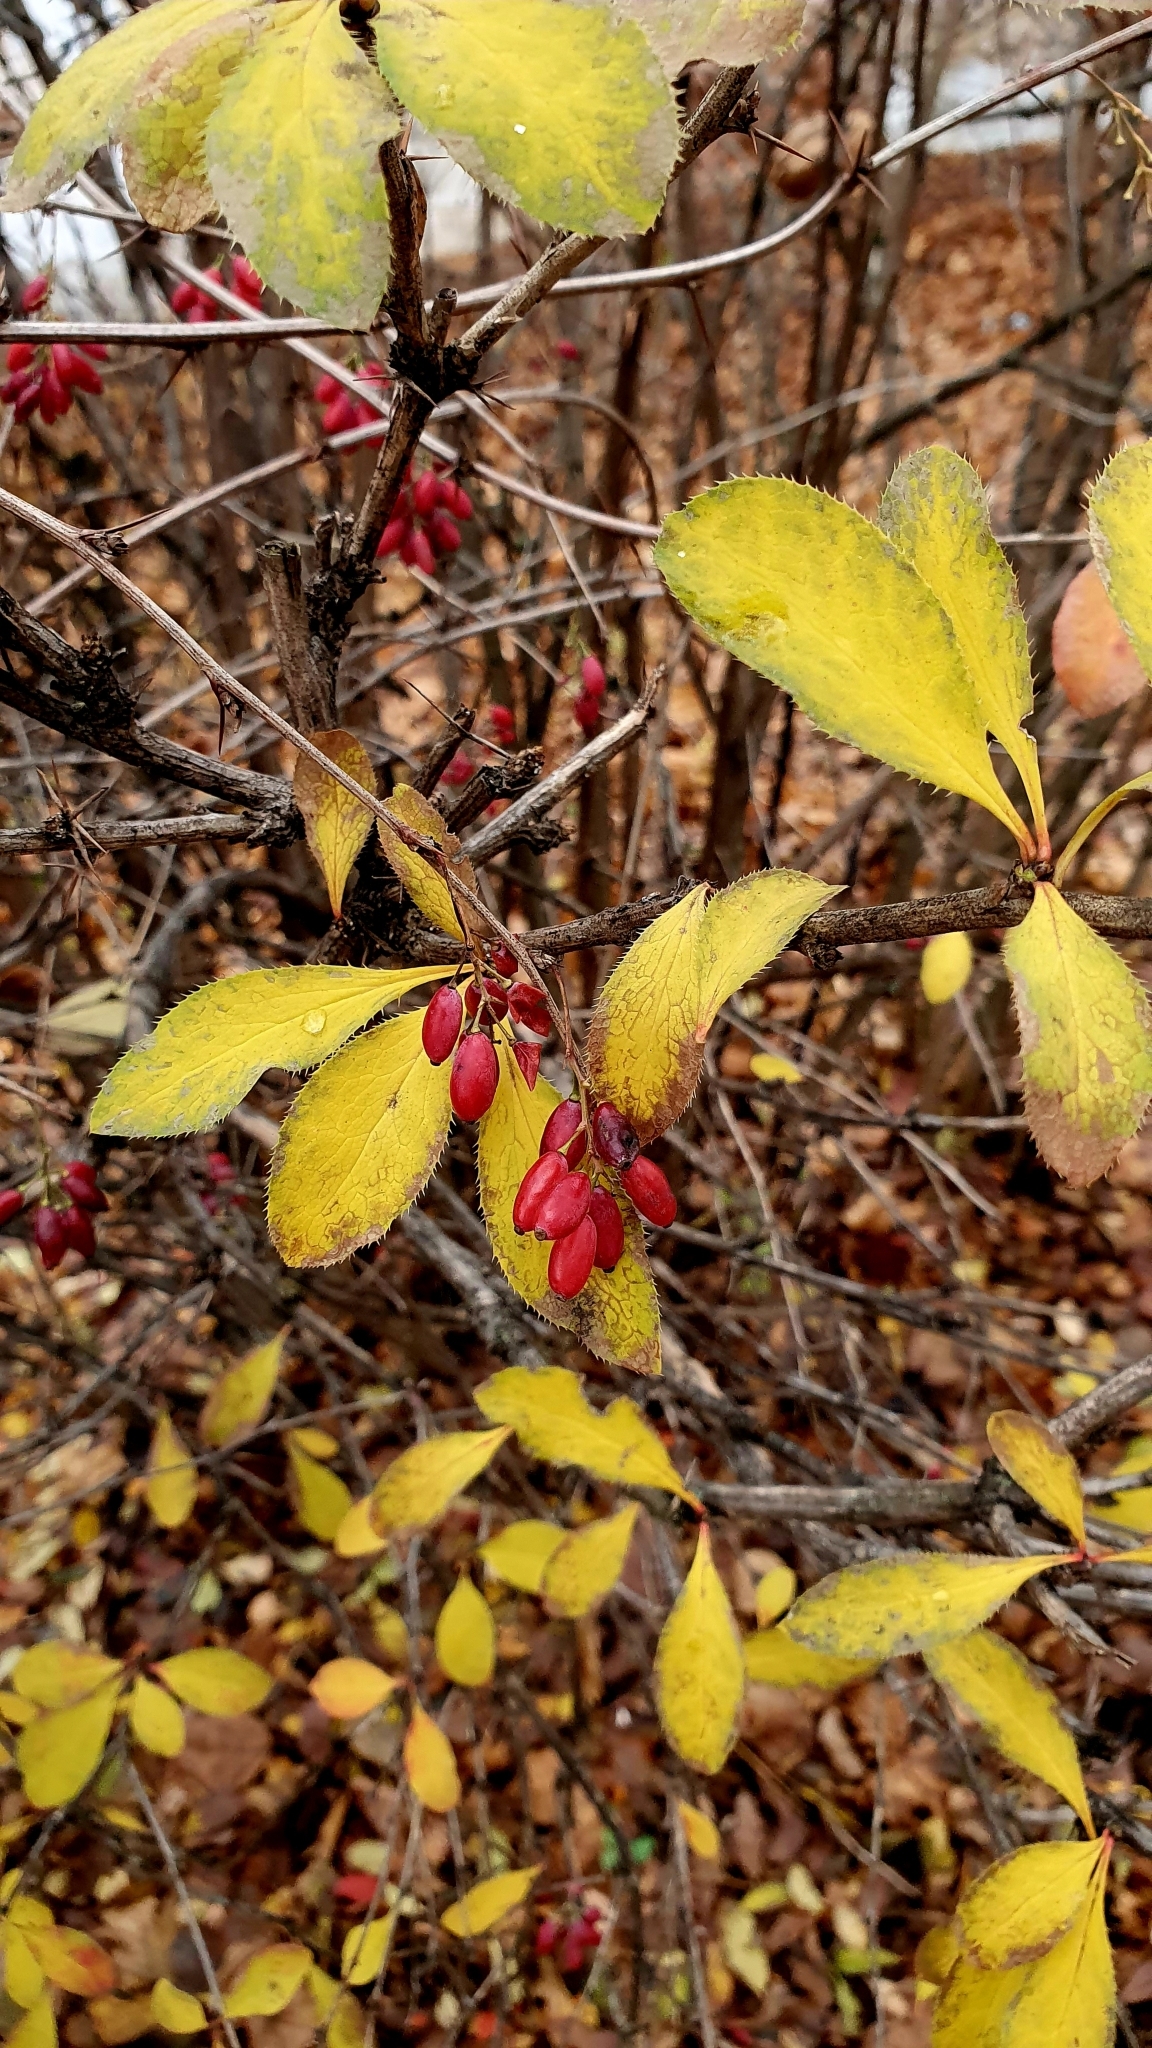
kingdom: Plantae
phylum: Tracheophyta
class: Magnoliopsida
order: Ranunculales
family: Berberidaceae
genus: Berberis
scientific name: Berberis vulgaris
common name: Barberry
